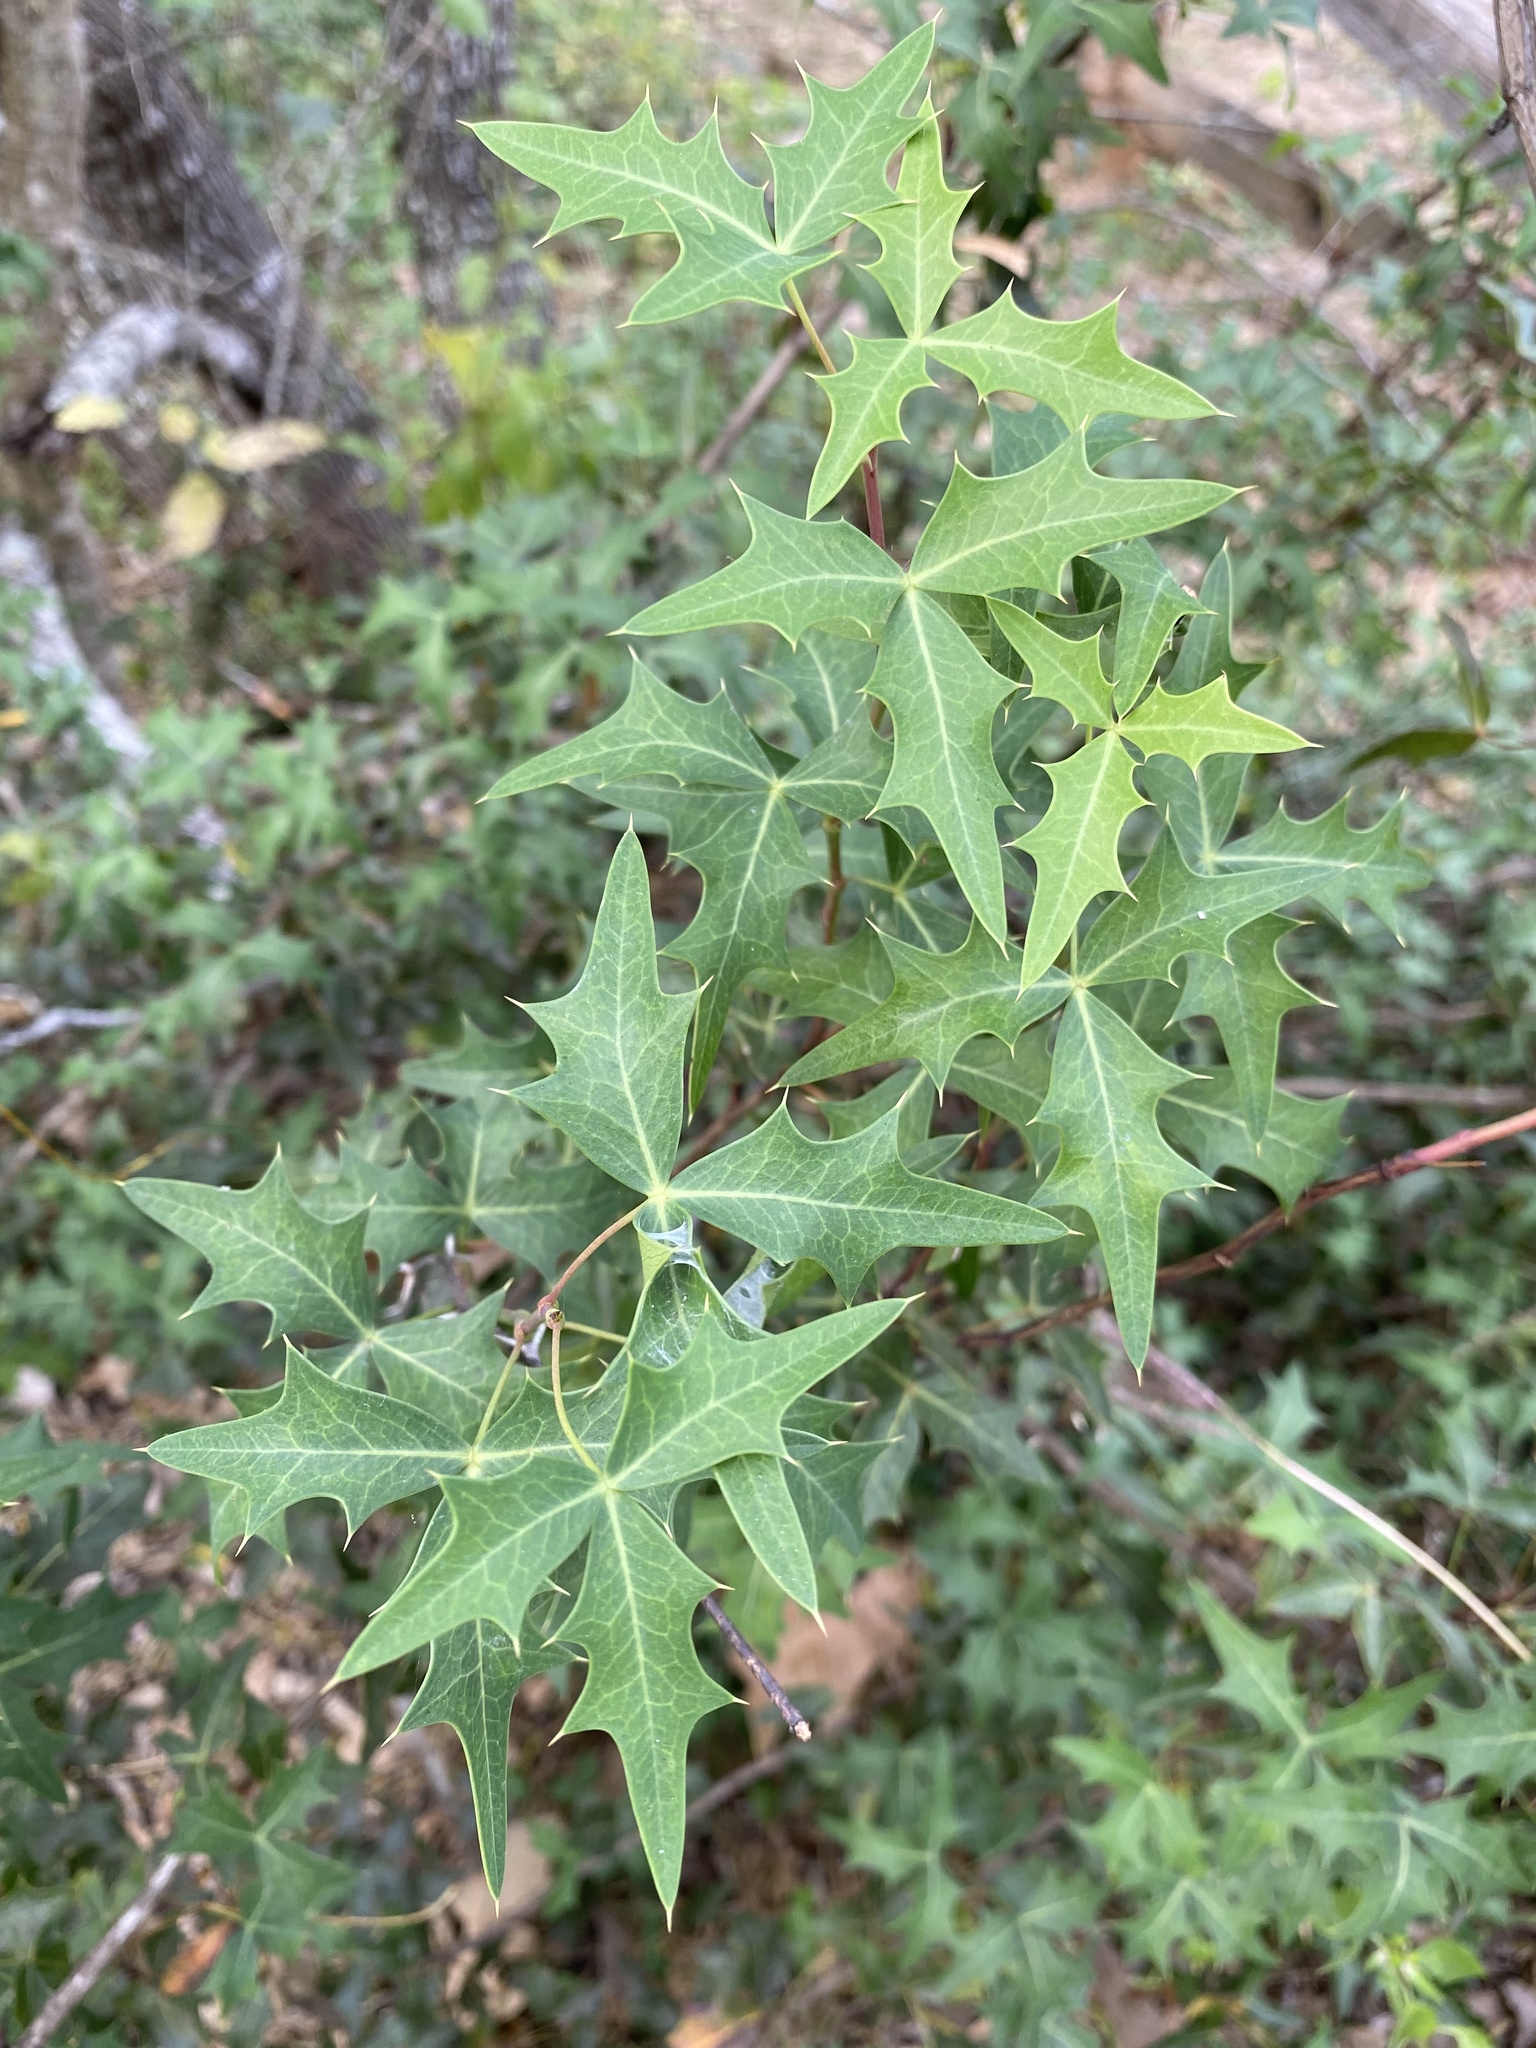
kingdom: Plantae
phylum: Tracheophyta
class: Magnoliopsida
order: Ranunculales
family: Berberidaceae
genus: Alloberberis
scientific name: Alloberberis trifoliolata
